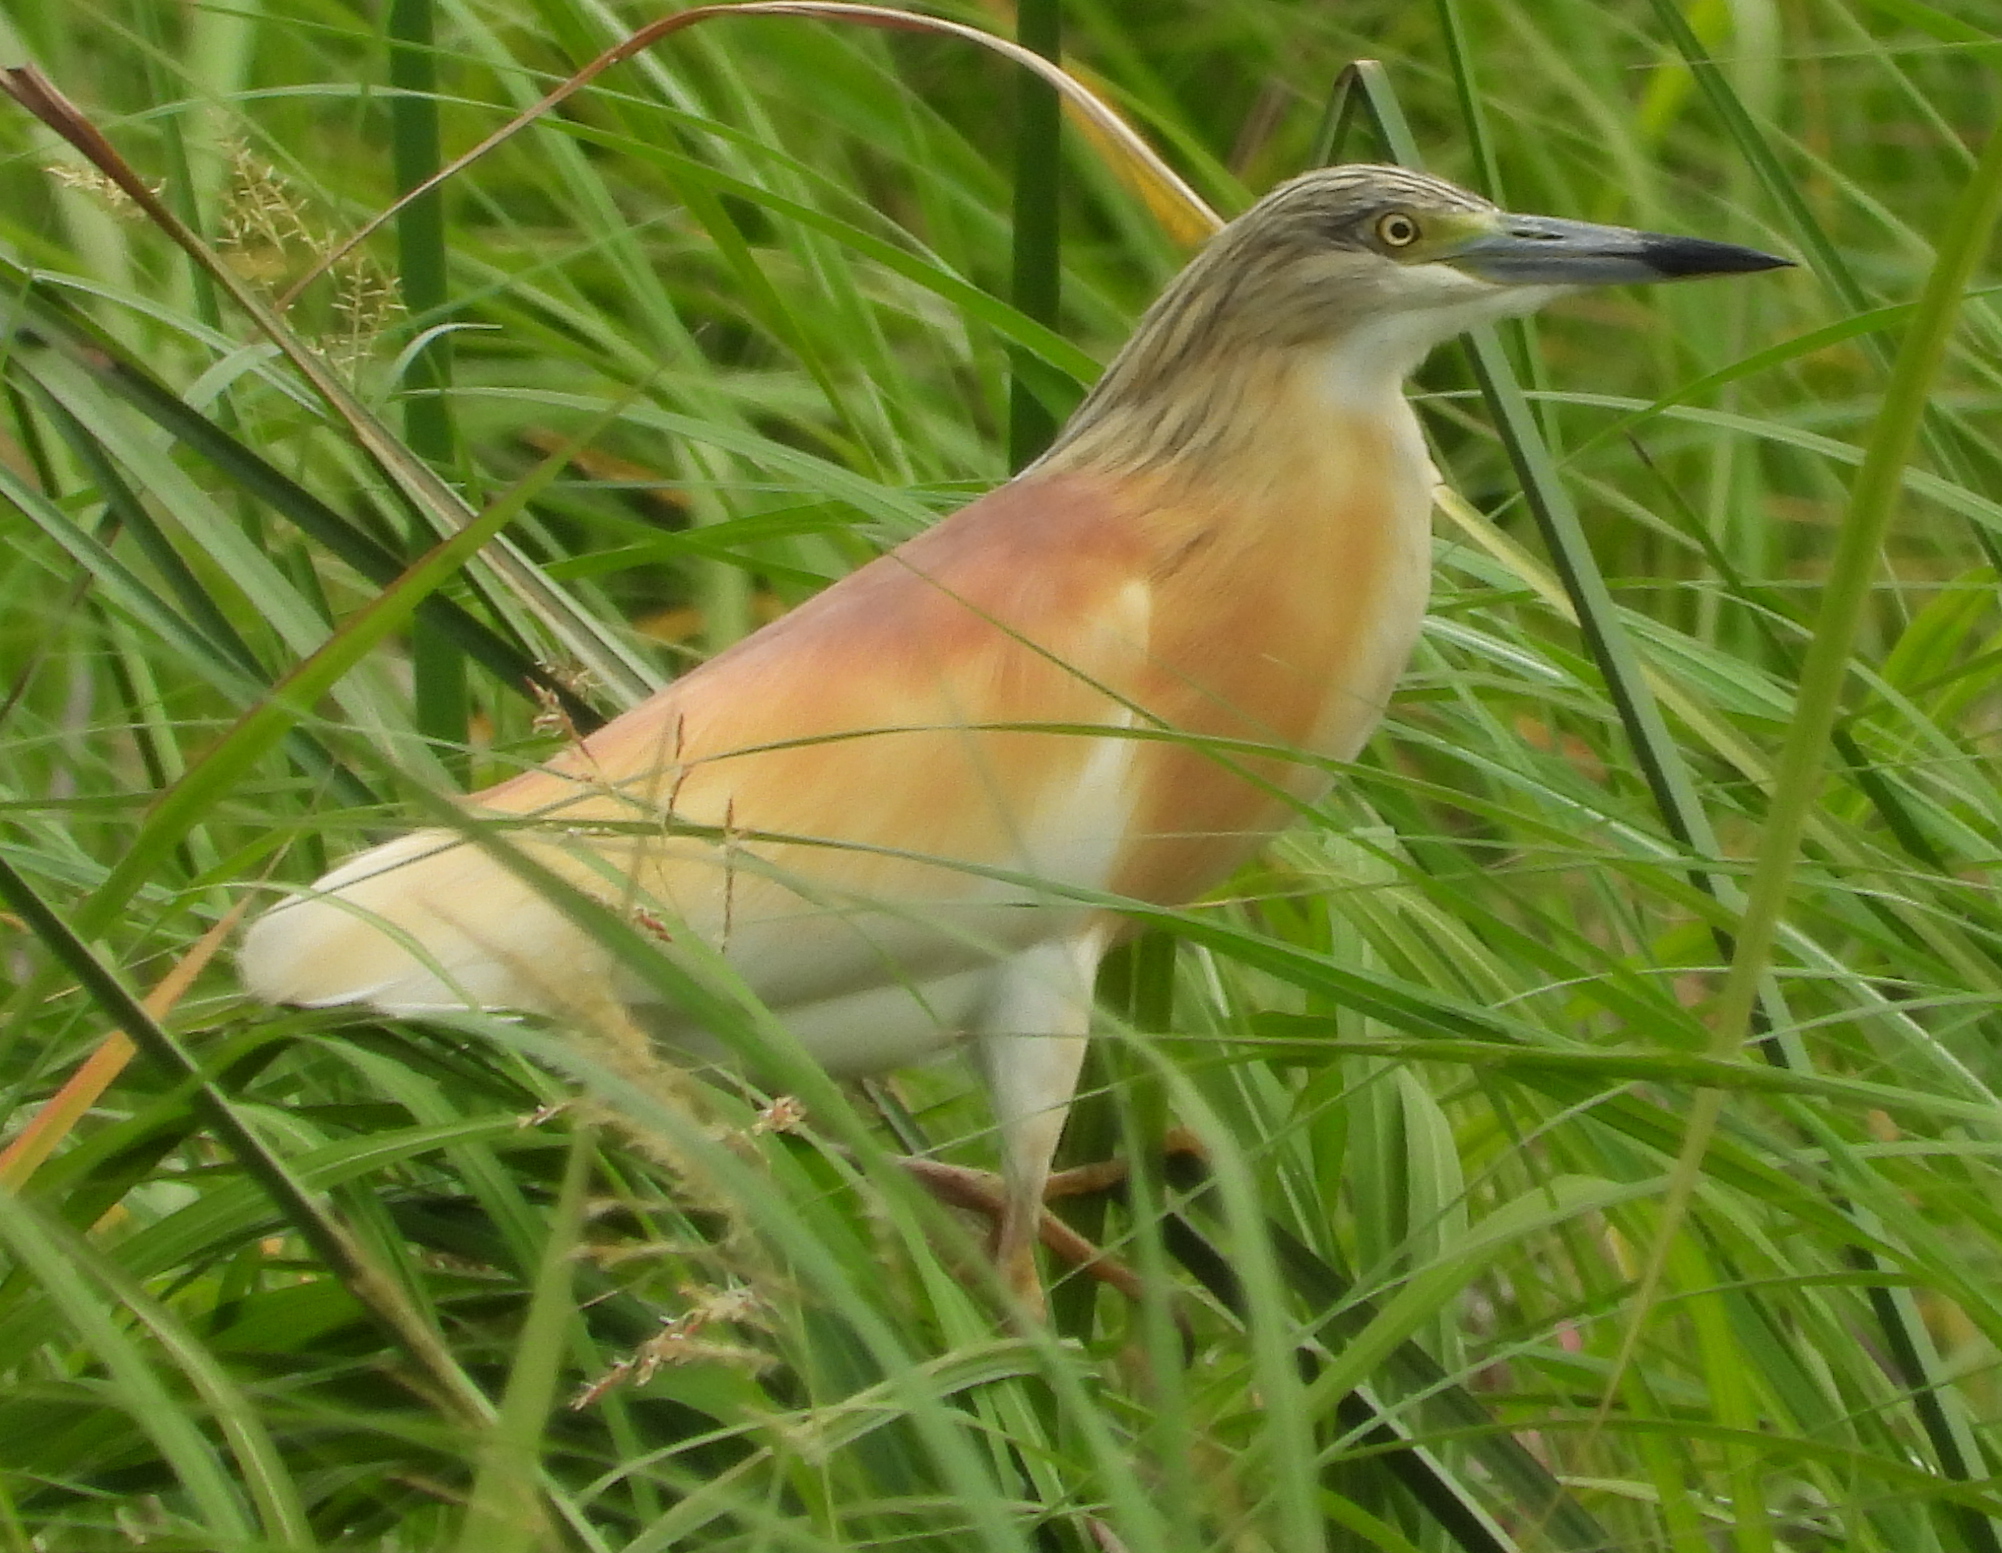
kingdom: Animalia
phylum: Chordata
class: Aves
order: Pelecaniformes
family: Ardeidae
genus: Ardeola
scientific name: Ardeola ralloides
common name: Squacco heron
